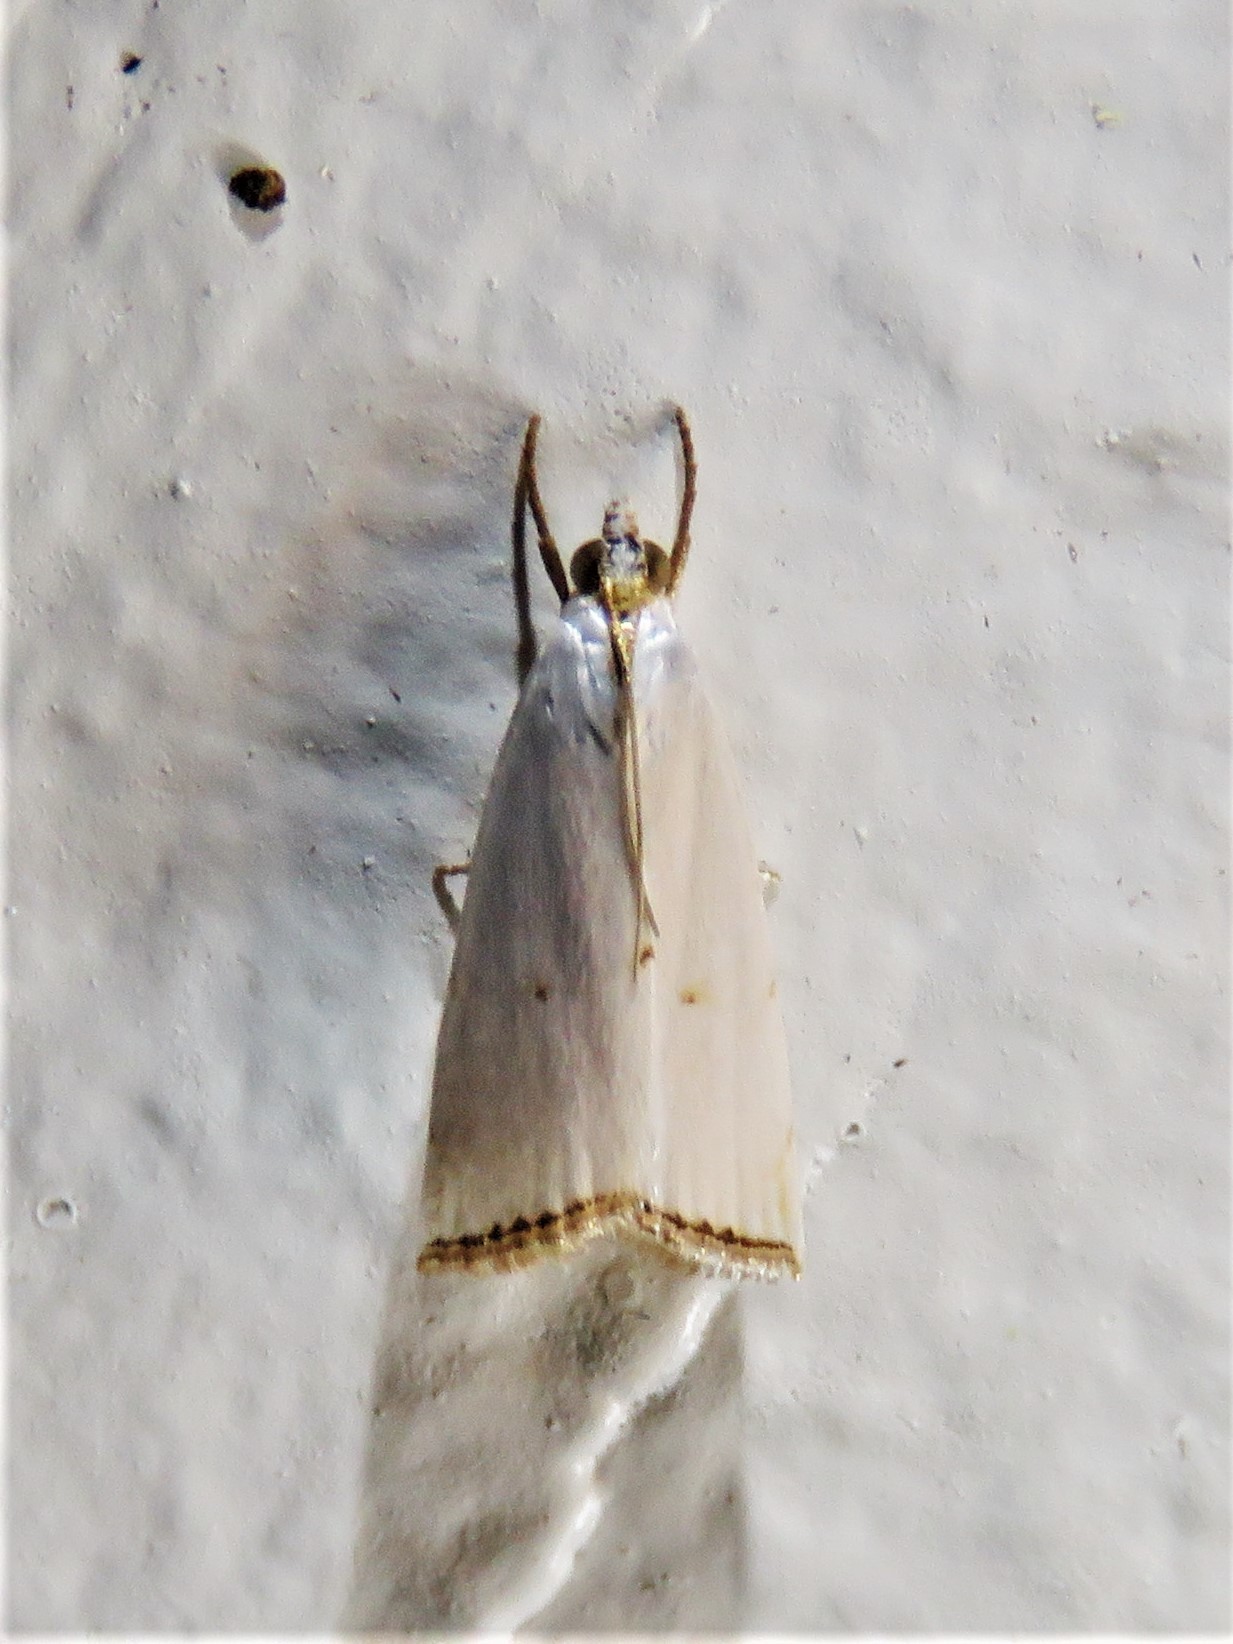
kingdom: Animalia
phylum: Arthropoda
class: Insecta
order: Lepidoptera
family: Crambidae
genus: Argyria
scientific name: Argyria pusillalis
